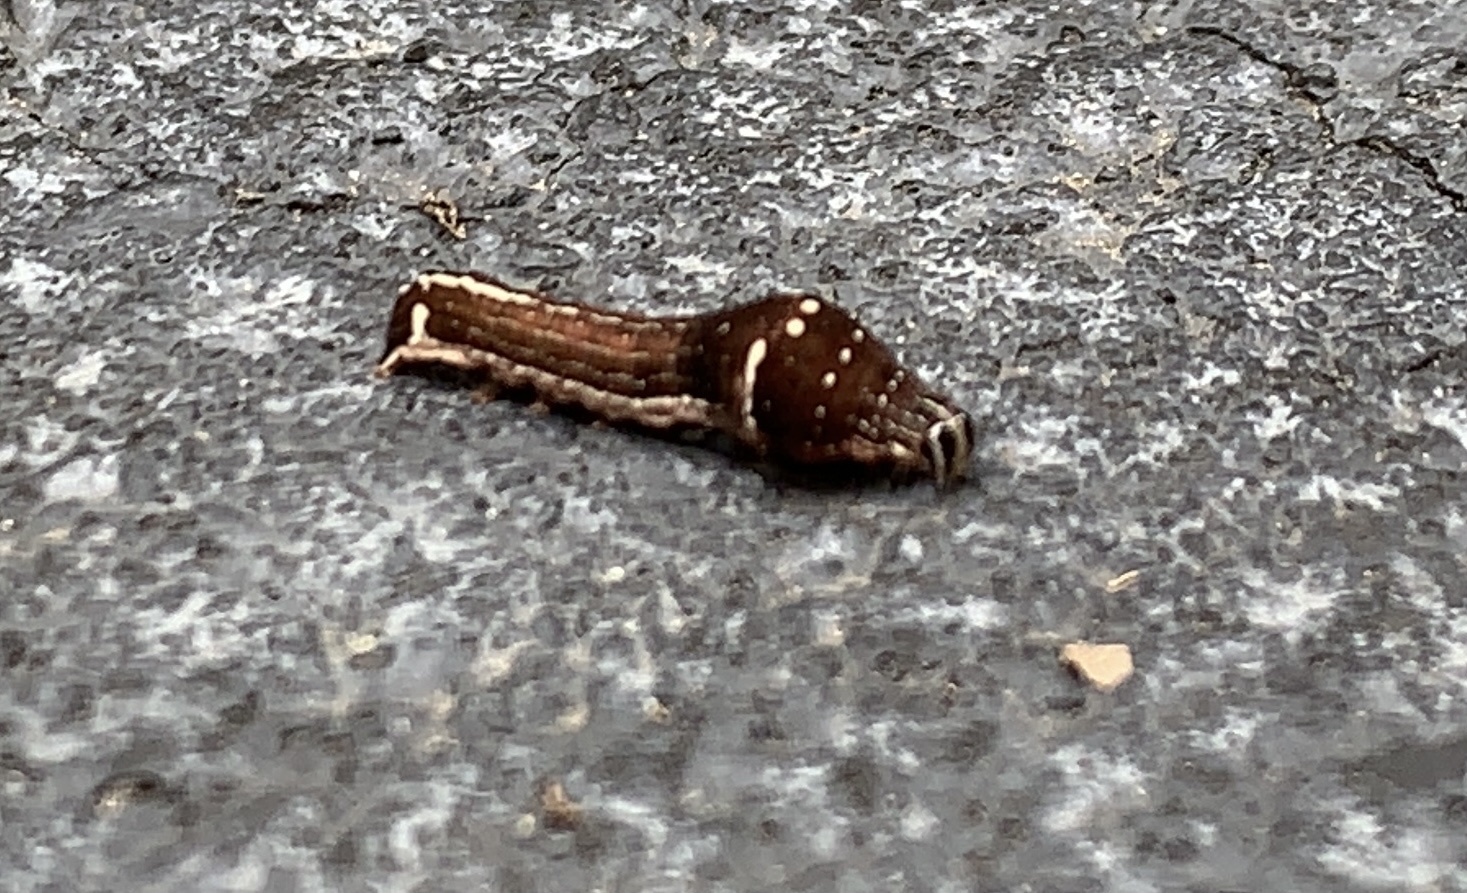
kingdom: Animalia
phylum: Arthropoda
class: Insecta
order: Lepidoptera
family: Noctuidae
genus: Galgula
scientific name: Galgula partita
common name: Wedgeling
